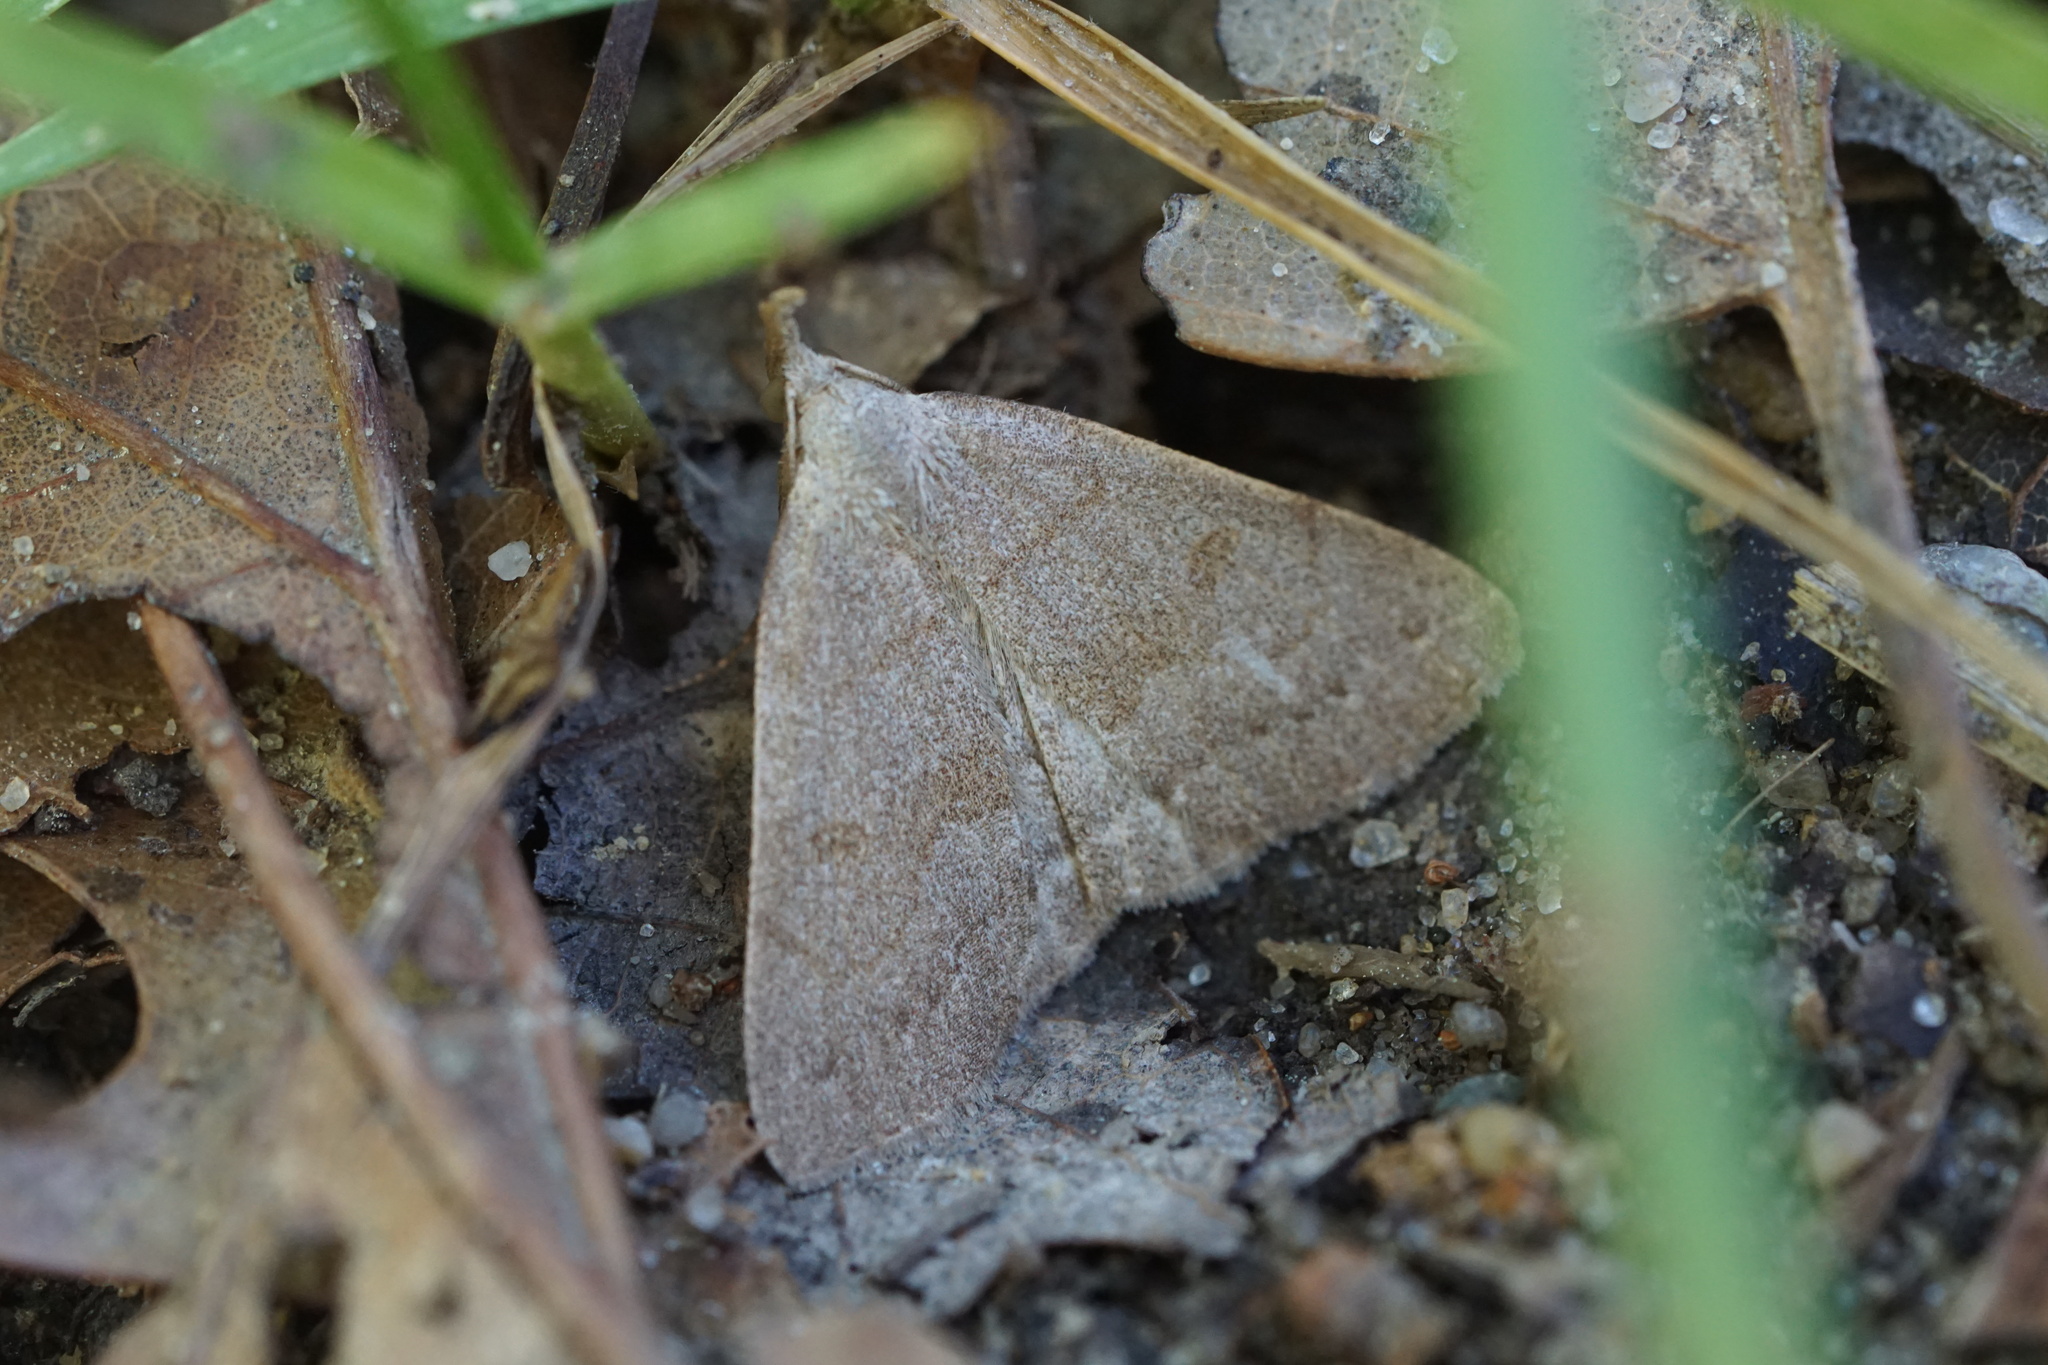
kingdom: Animalia
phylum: Arthropoda
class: Insecta
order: Lepidoptera
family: Erebidae
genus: Macrochilo
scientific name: Macrochilo morbidalis
